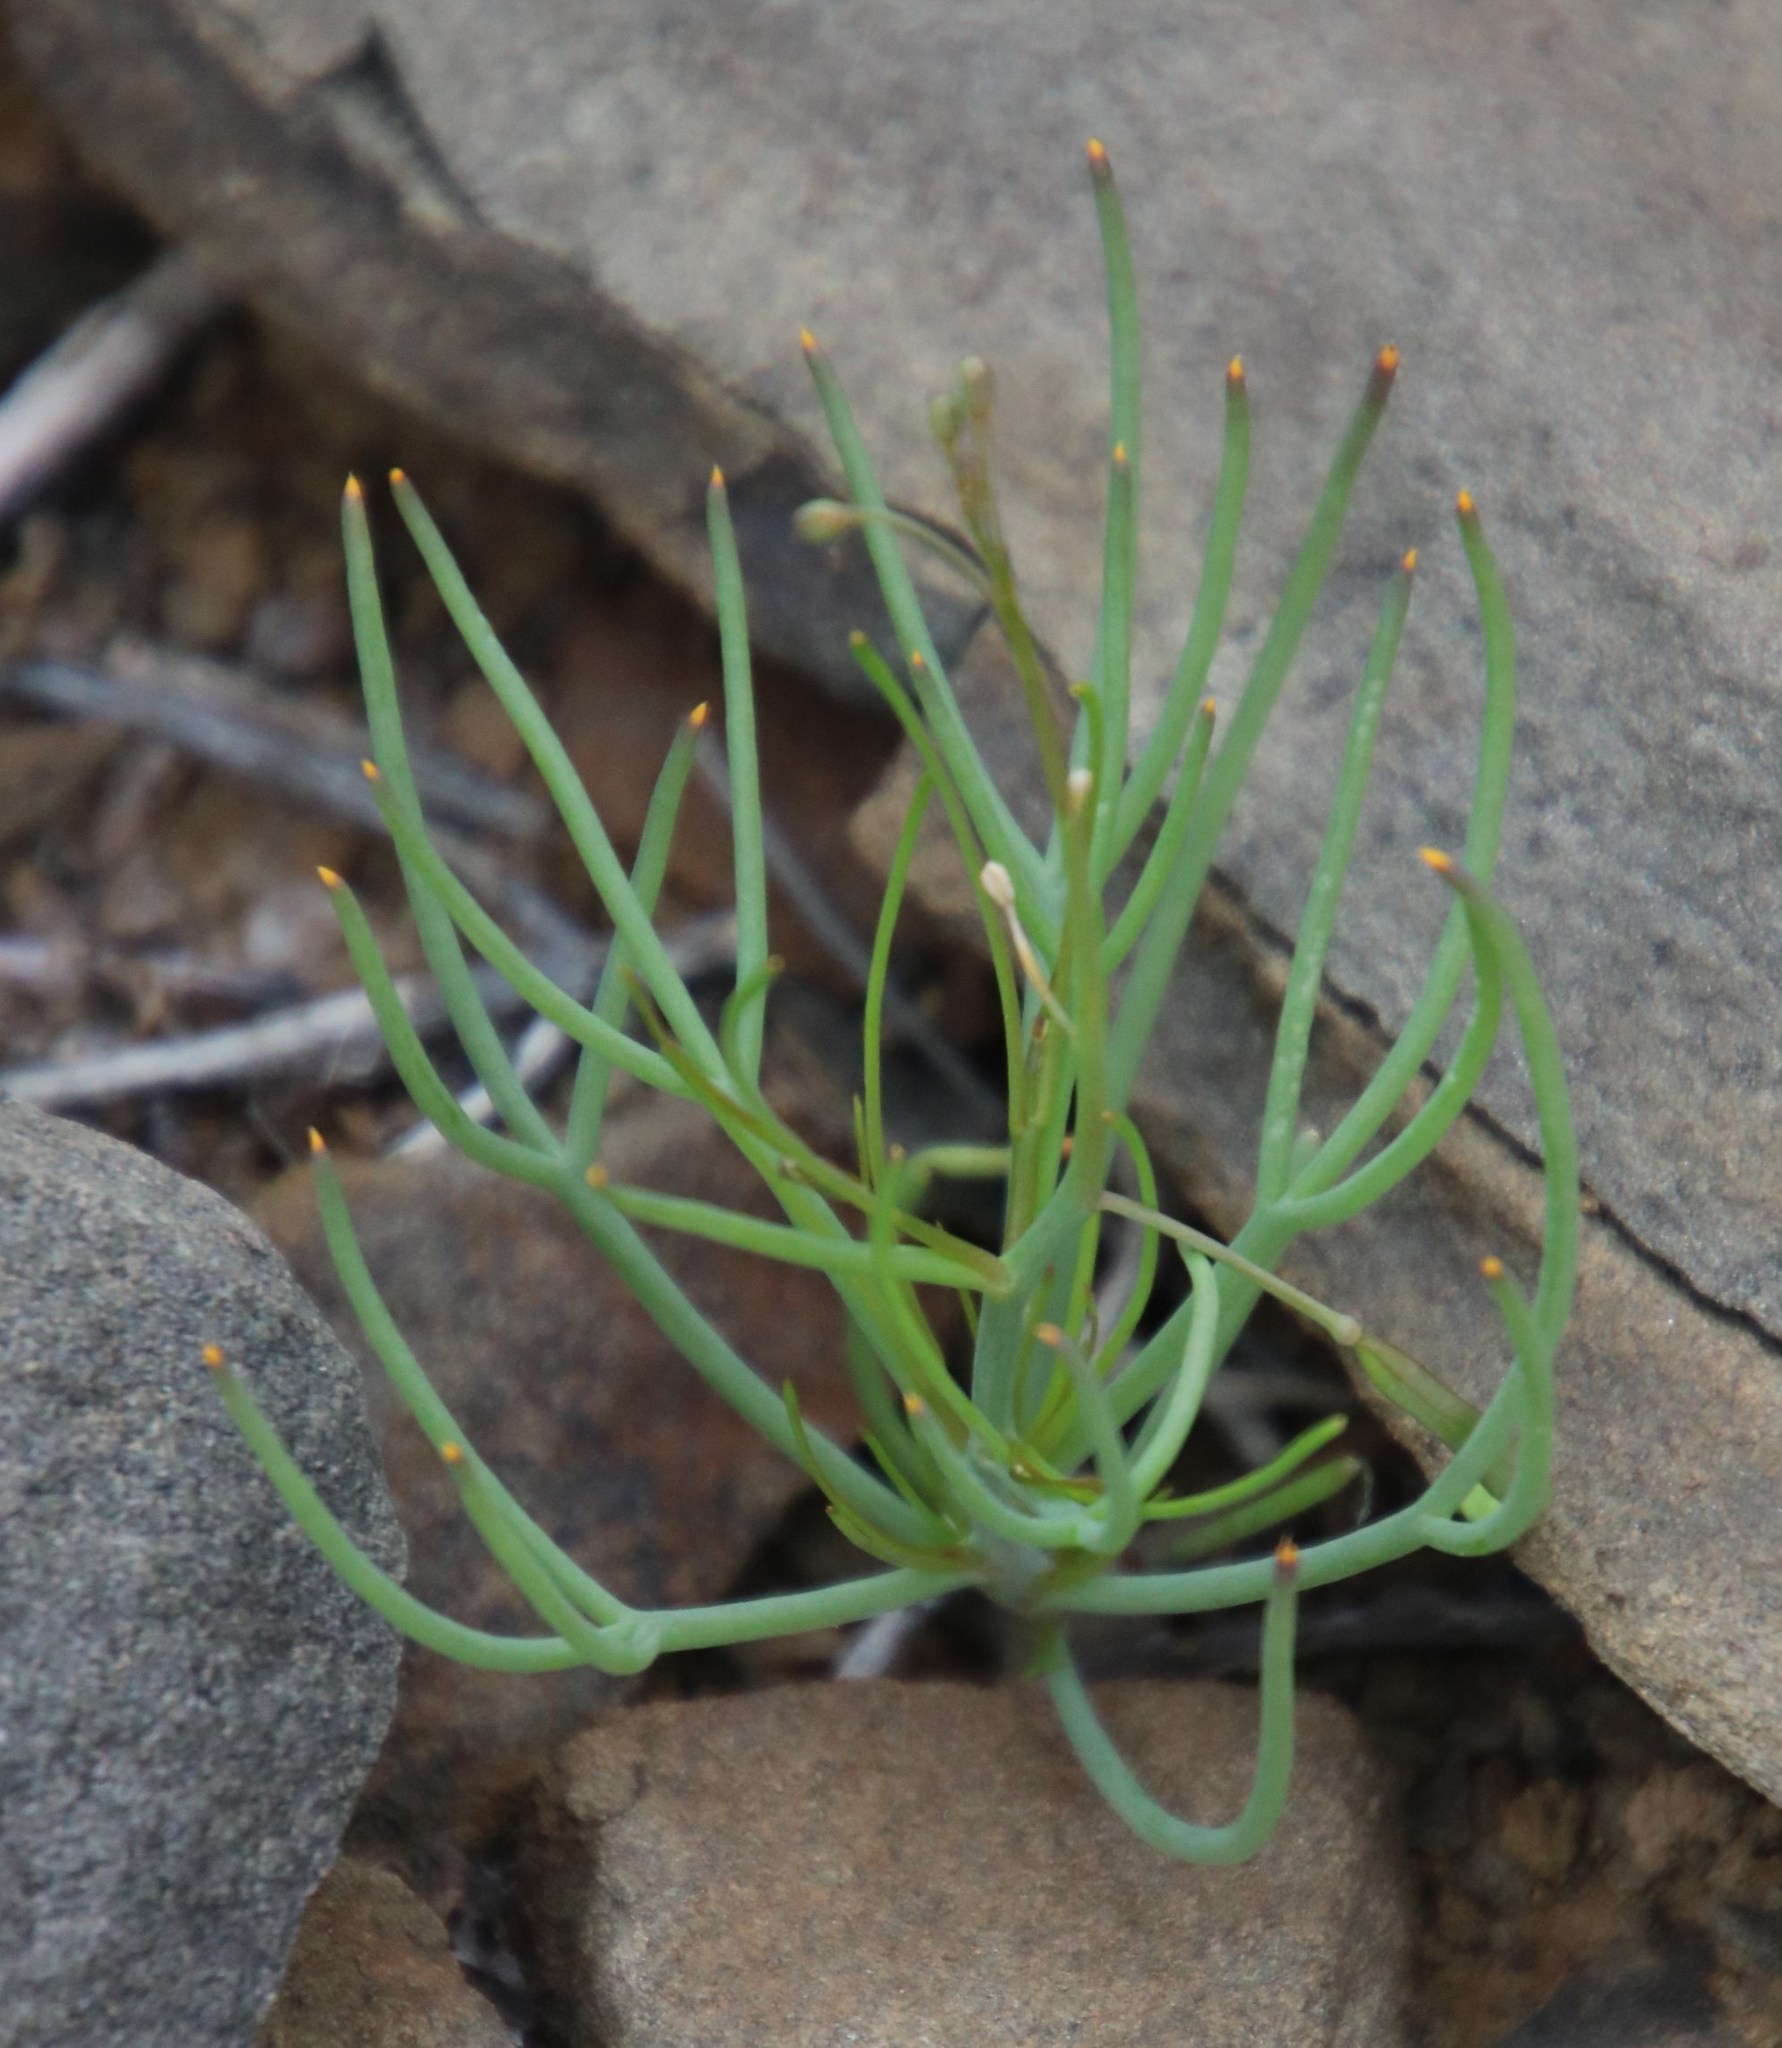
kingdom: Plantae
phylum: Tracheophyta
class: Magnoliopsida
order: Brassicales
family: Brassicaceae
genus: Heliophila
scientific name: Heliophila trifurca
